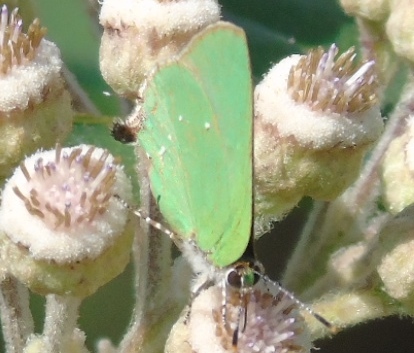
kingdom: Animalia
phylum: Arthropoda
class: Insecta
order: Lepidoptera
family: Lycaenidae
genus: Thecla
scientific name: Thecla amyntor
